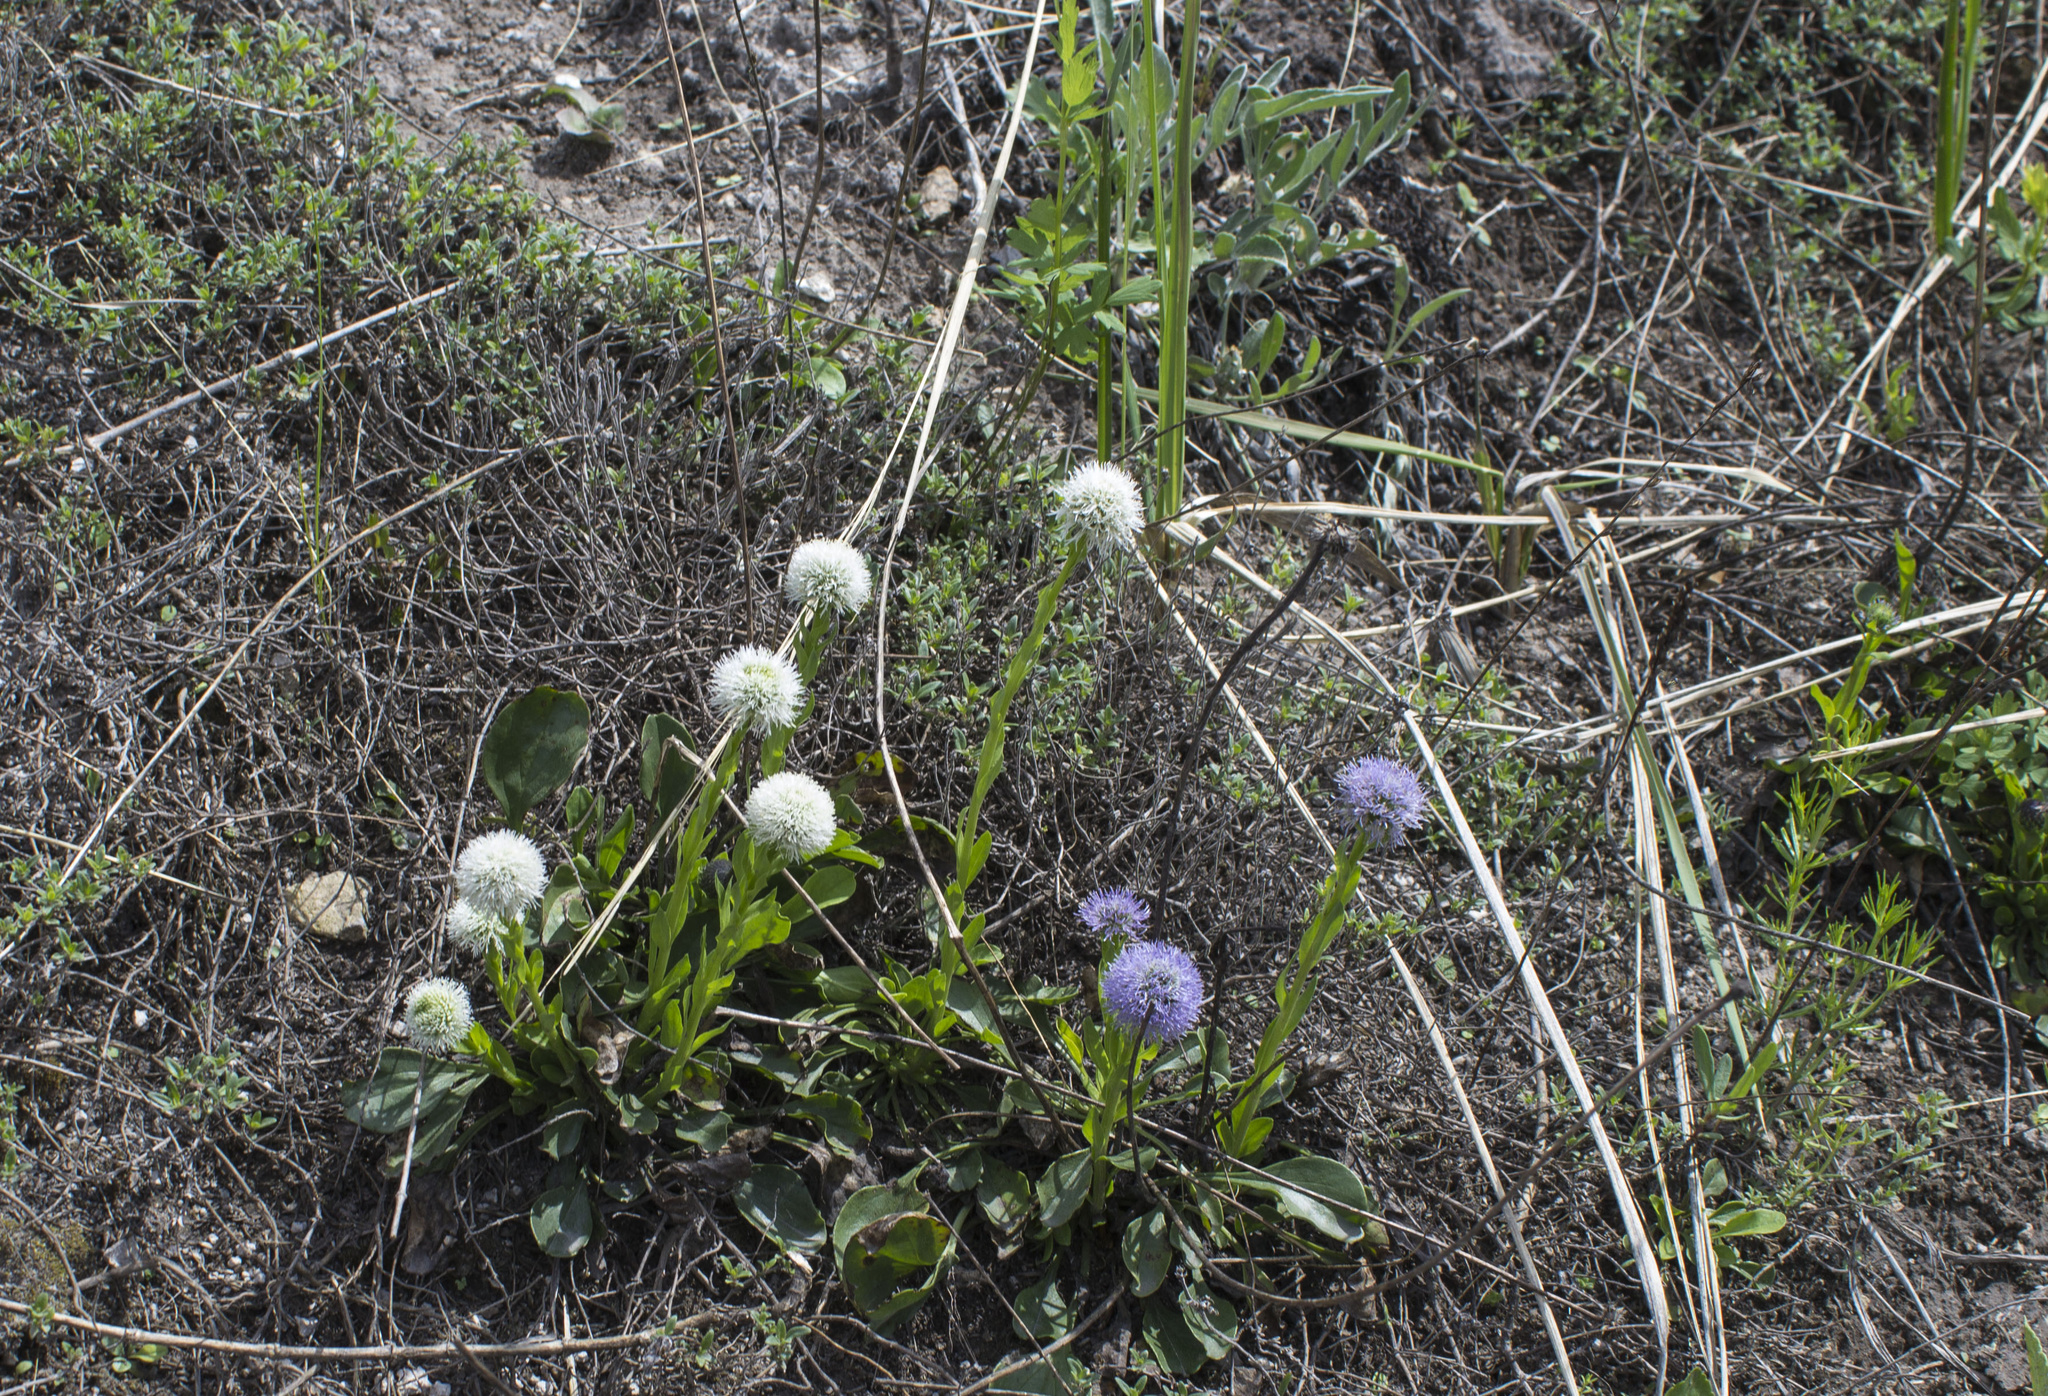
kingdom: Plantae
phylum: Tracheophyta
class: Magnoliopsida
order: Lamiales
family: Plantaginaceae
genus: Globularia
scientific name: Globularia bisnagarica
